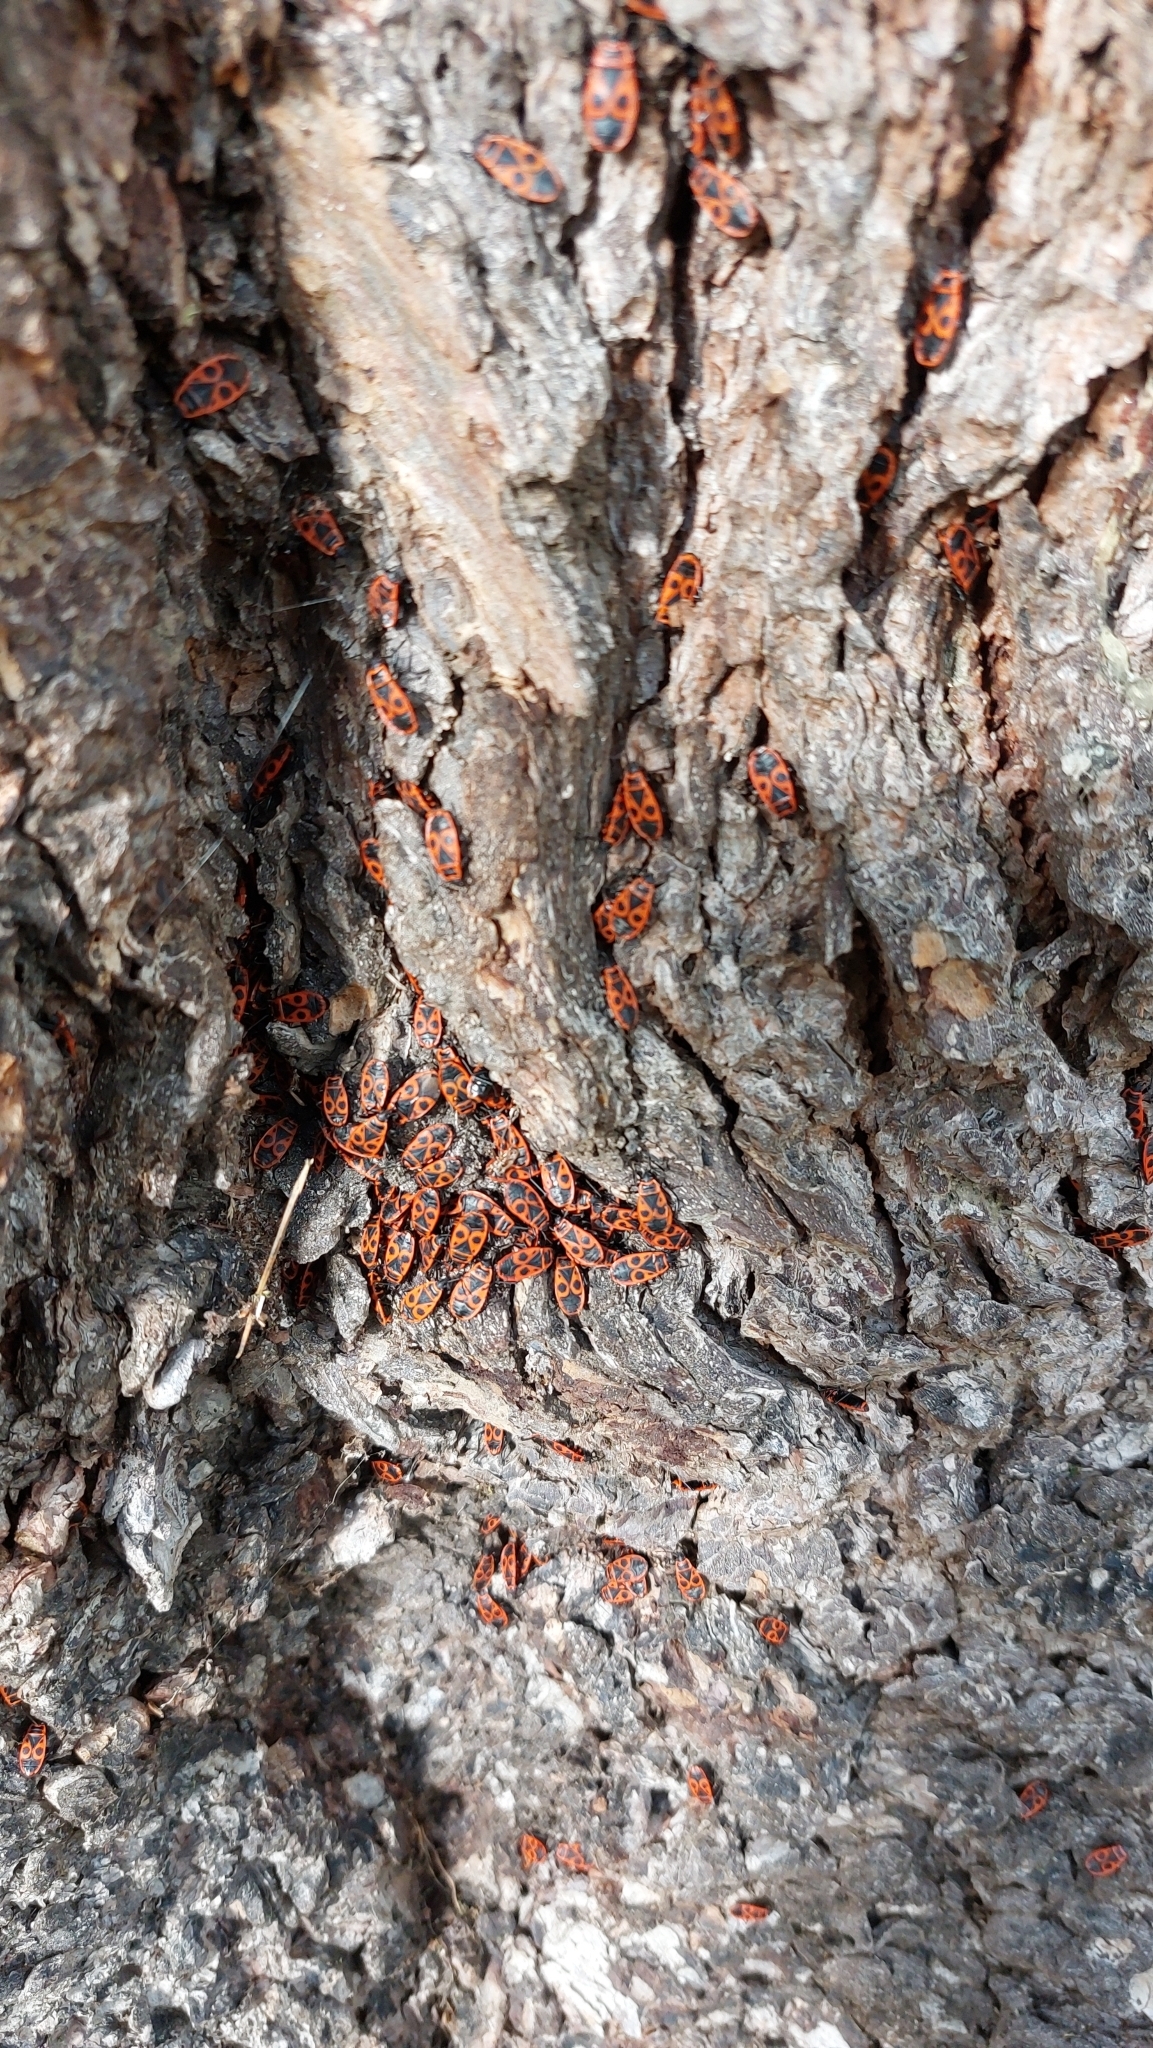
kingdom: Animalia
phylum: Arthropoda
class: Insecta
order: Hemiptera
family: Pyrrhocoridae
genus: Pyrrhocoris
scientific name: Pyrrhocoris apterus
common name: Firebug
